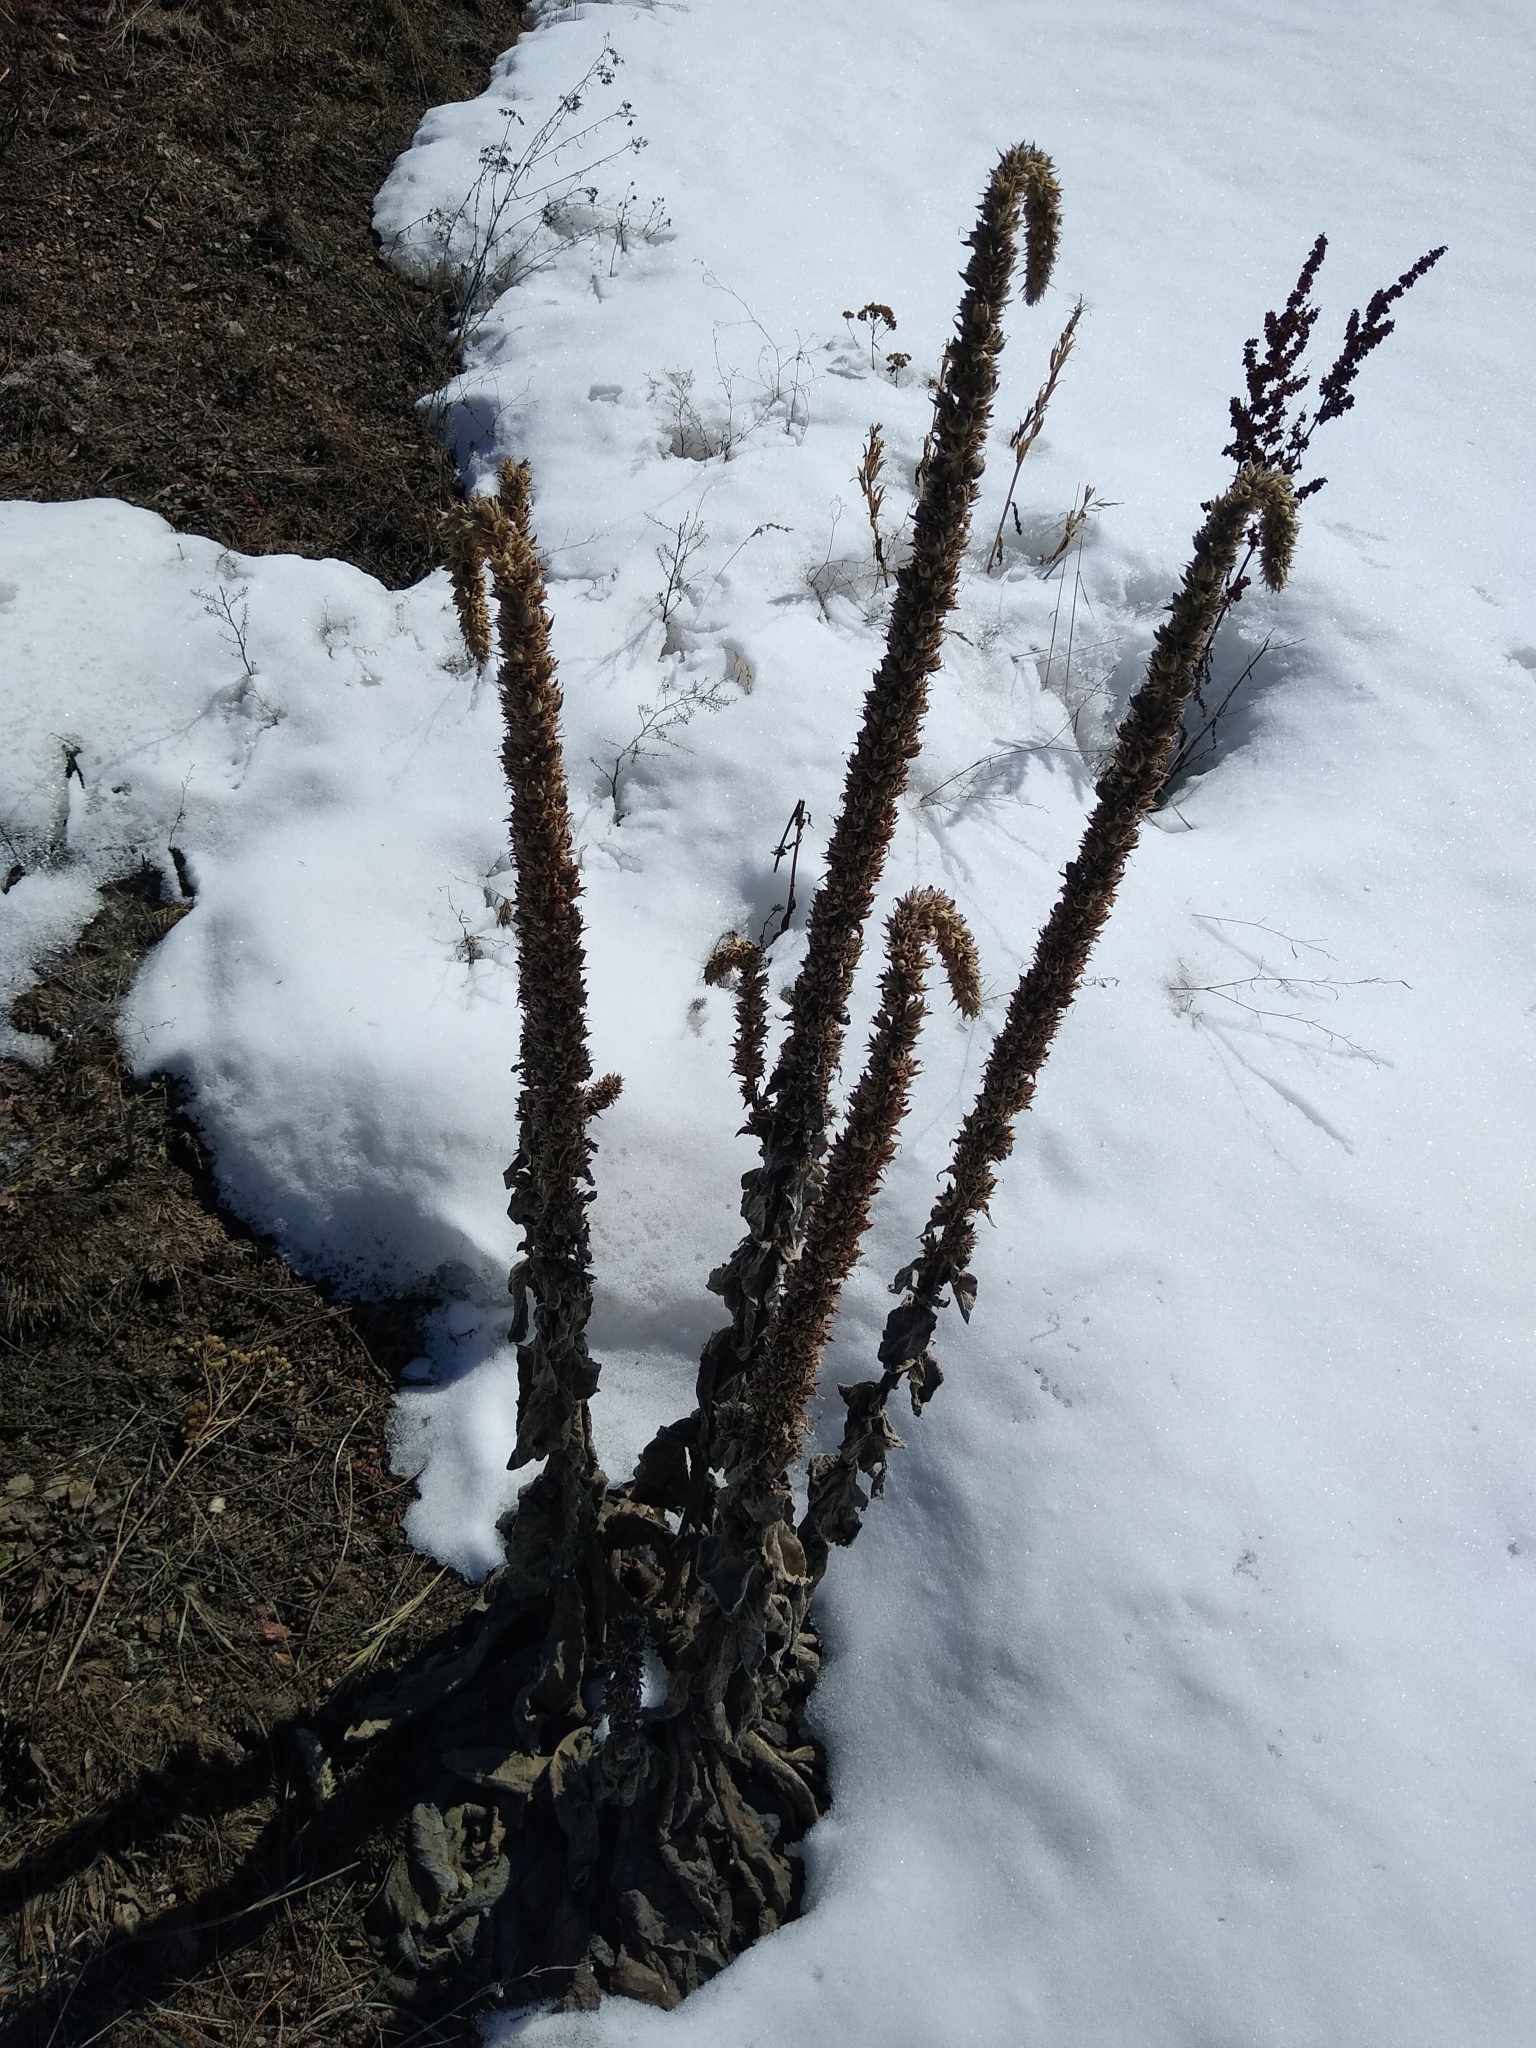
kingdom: Plantae
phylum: Tracheophyta
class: Magnoliopsida
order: Lamiales
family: Scrophulariaceae
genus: Verbascum
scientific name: Verbascum thapsus
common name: Common mullein
